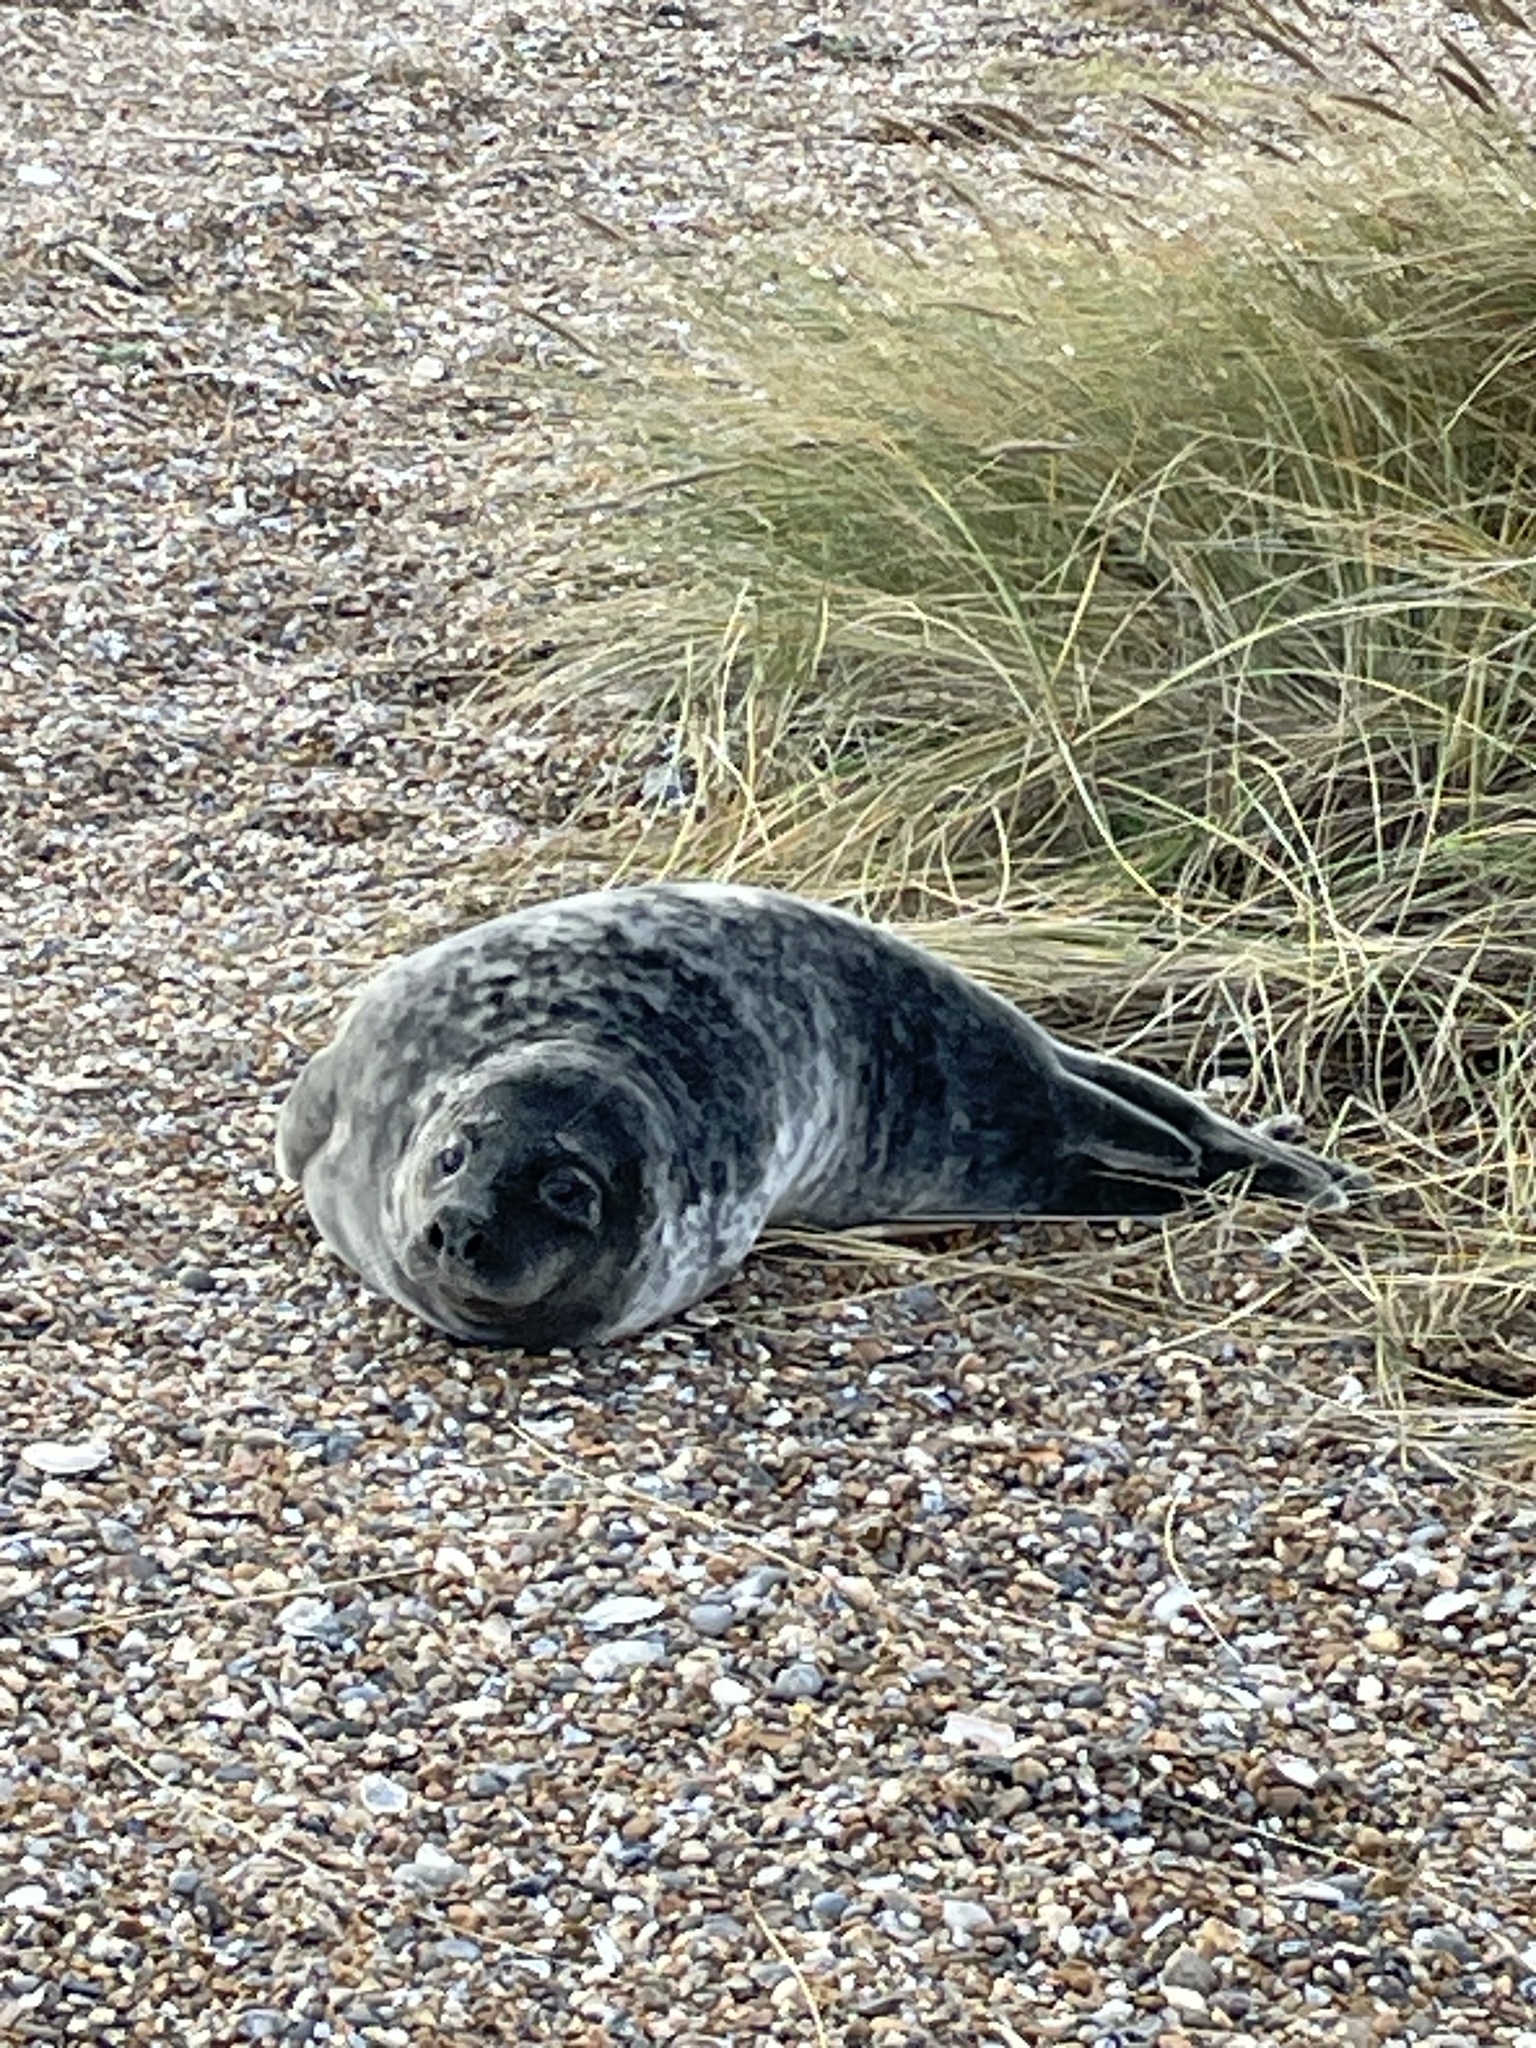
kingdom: Animalia
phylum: Chordata
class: Mammalia
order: Carnivora
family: Phocidae
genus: Halichoerus
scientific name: Halichoerus grypus
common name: Grey seal
